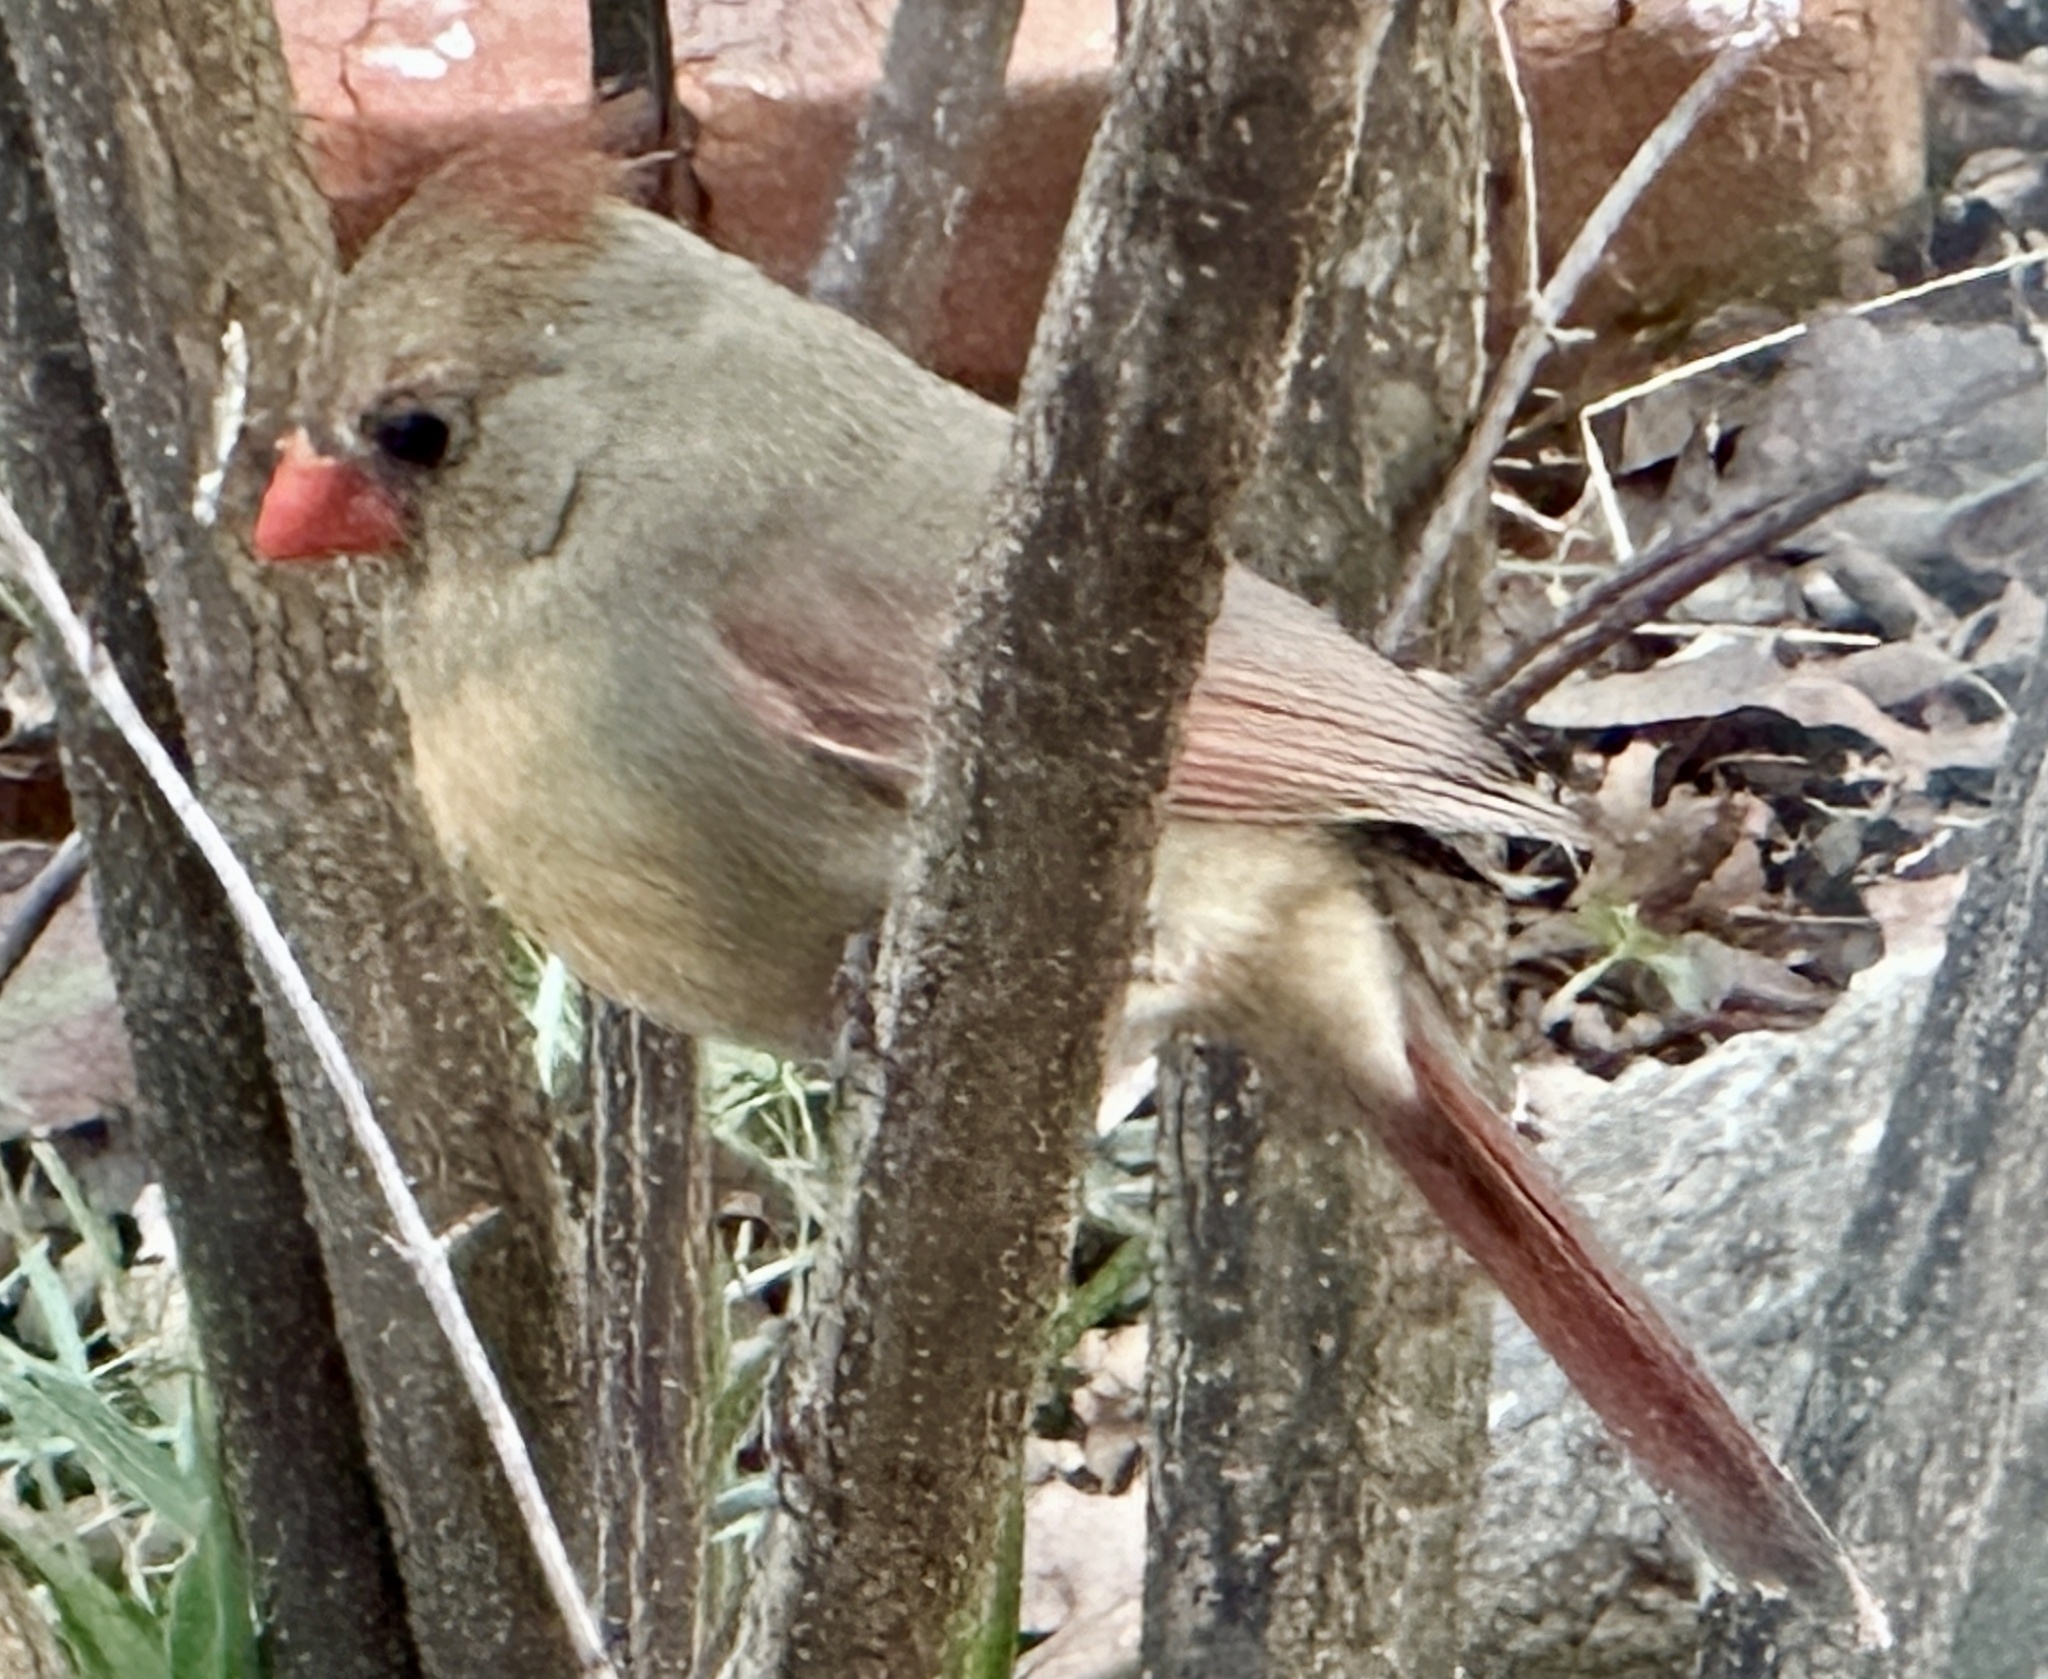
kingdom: Animalia
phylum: Chordata
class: Aves
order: Passeriformes
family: Cardinalidae
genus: Cardinalis
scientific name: Cardinalis cardinalis
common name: Northern cardinal
